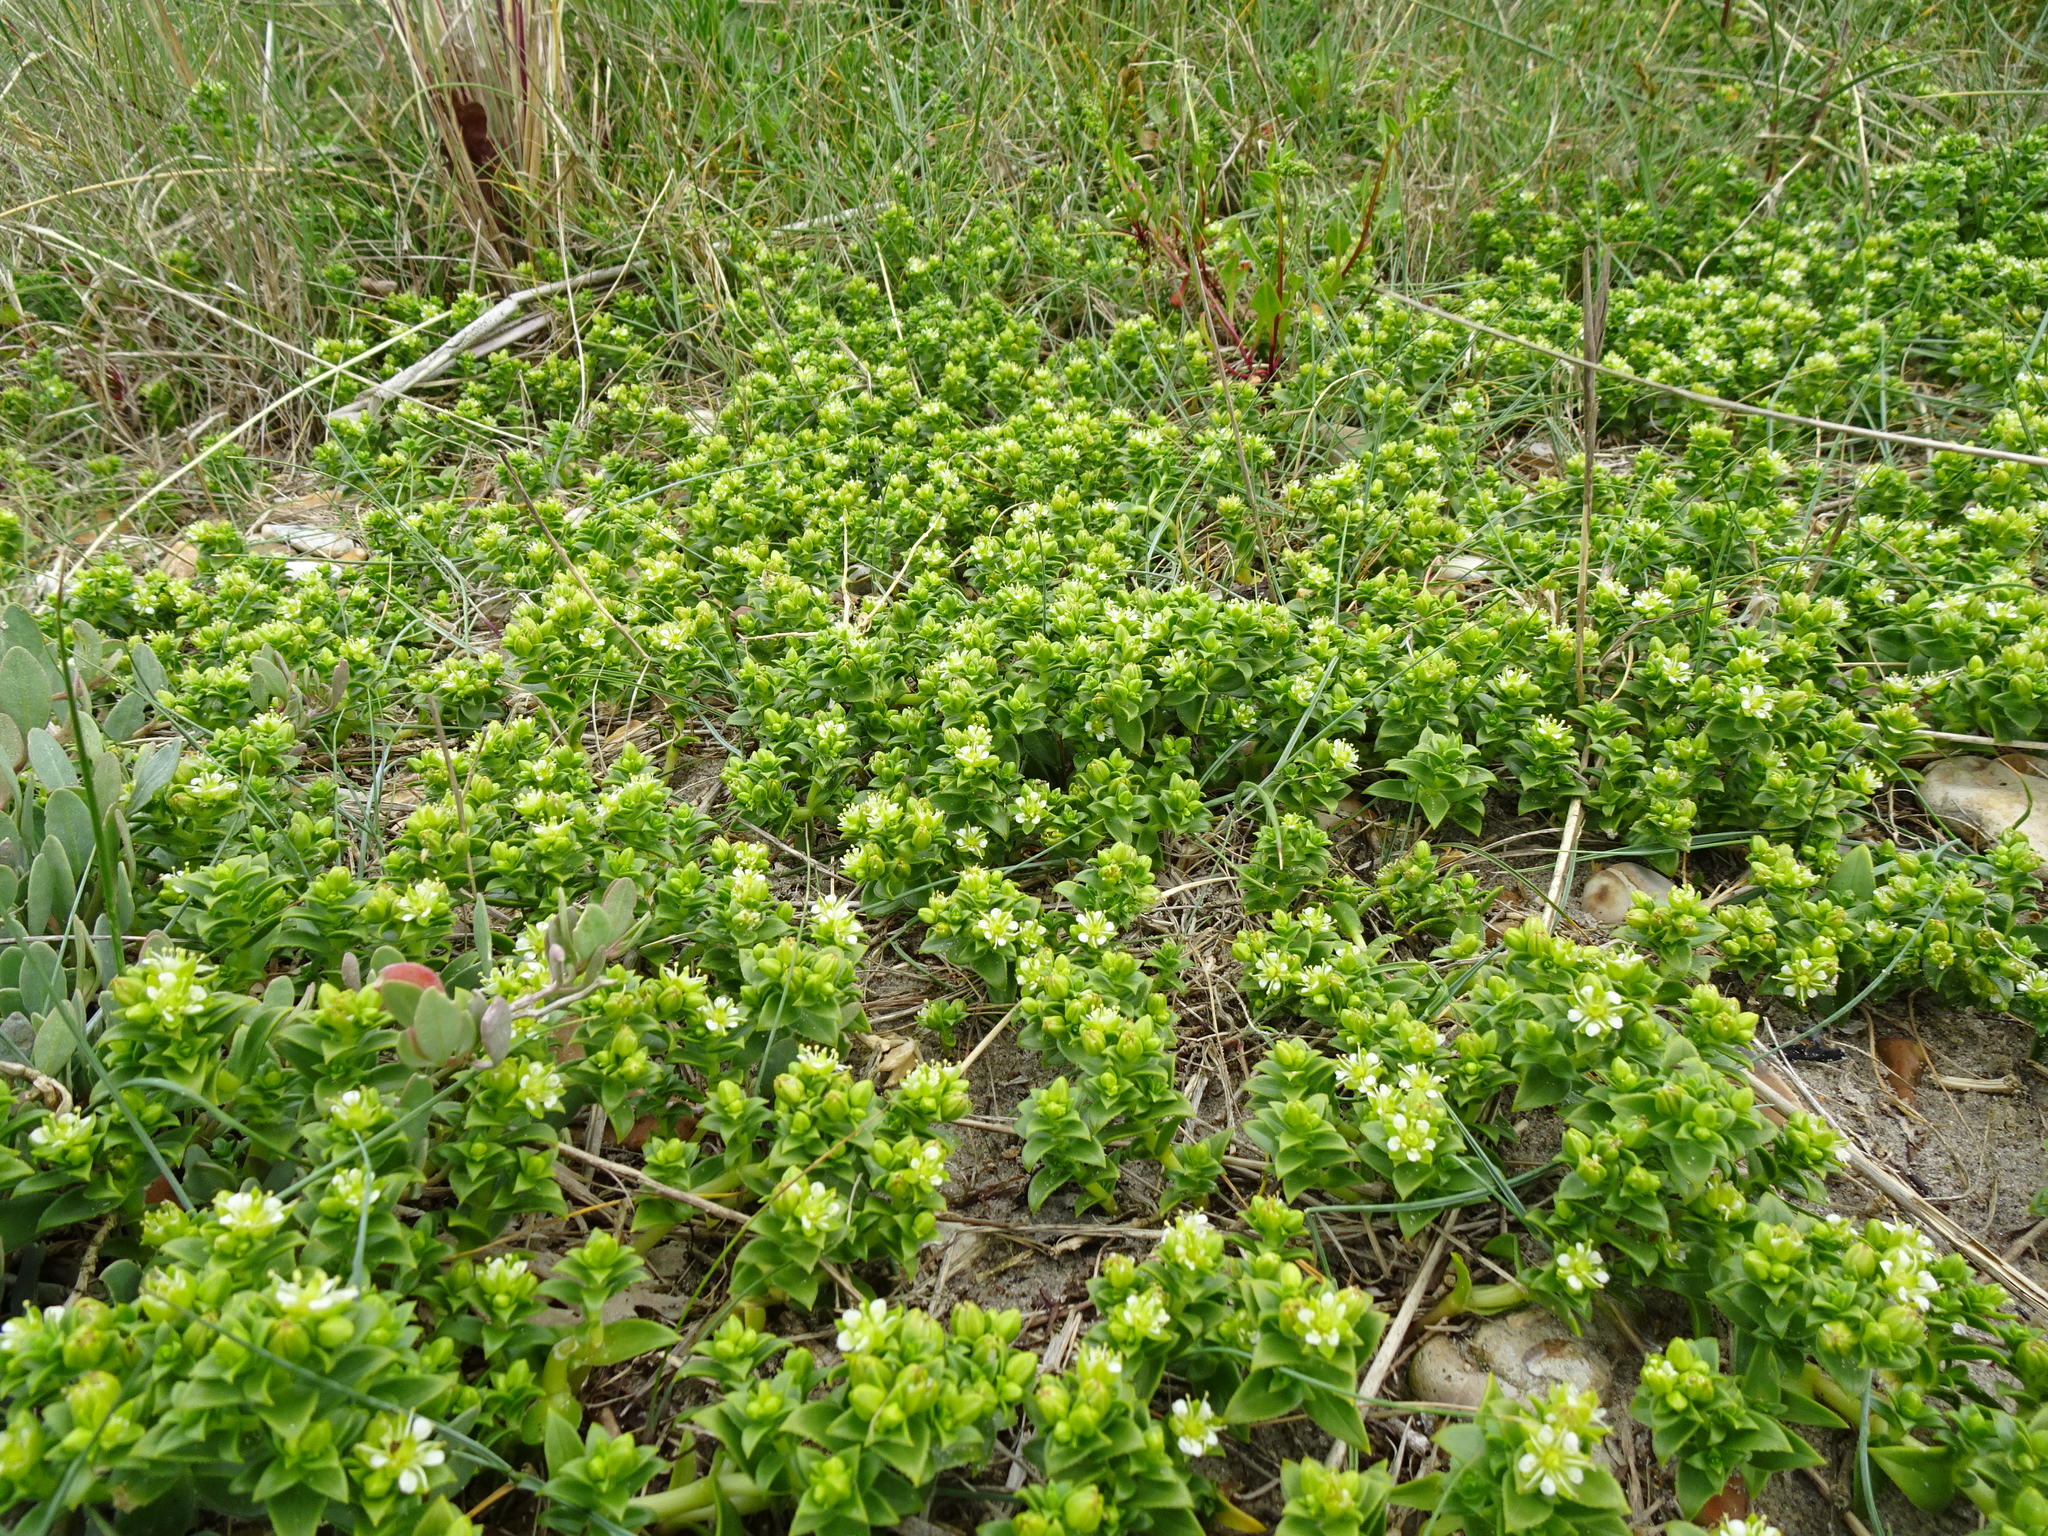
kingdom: Plantae
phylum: Tracheophyta
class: Magnoliopsida
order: Caryophyllales
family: Caryophyllaceae
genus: Honckenya
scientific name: Honckenya peploides
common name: Sea sandwort
